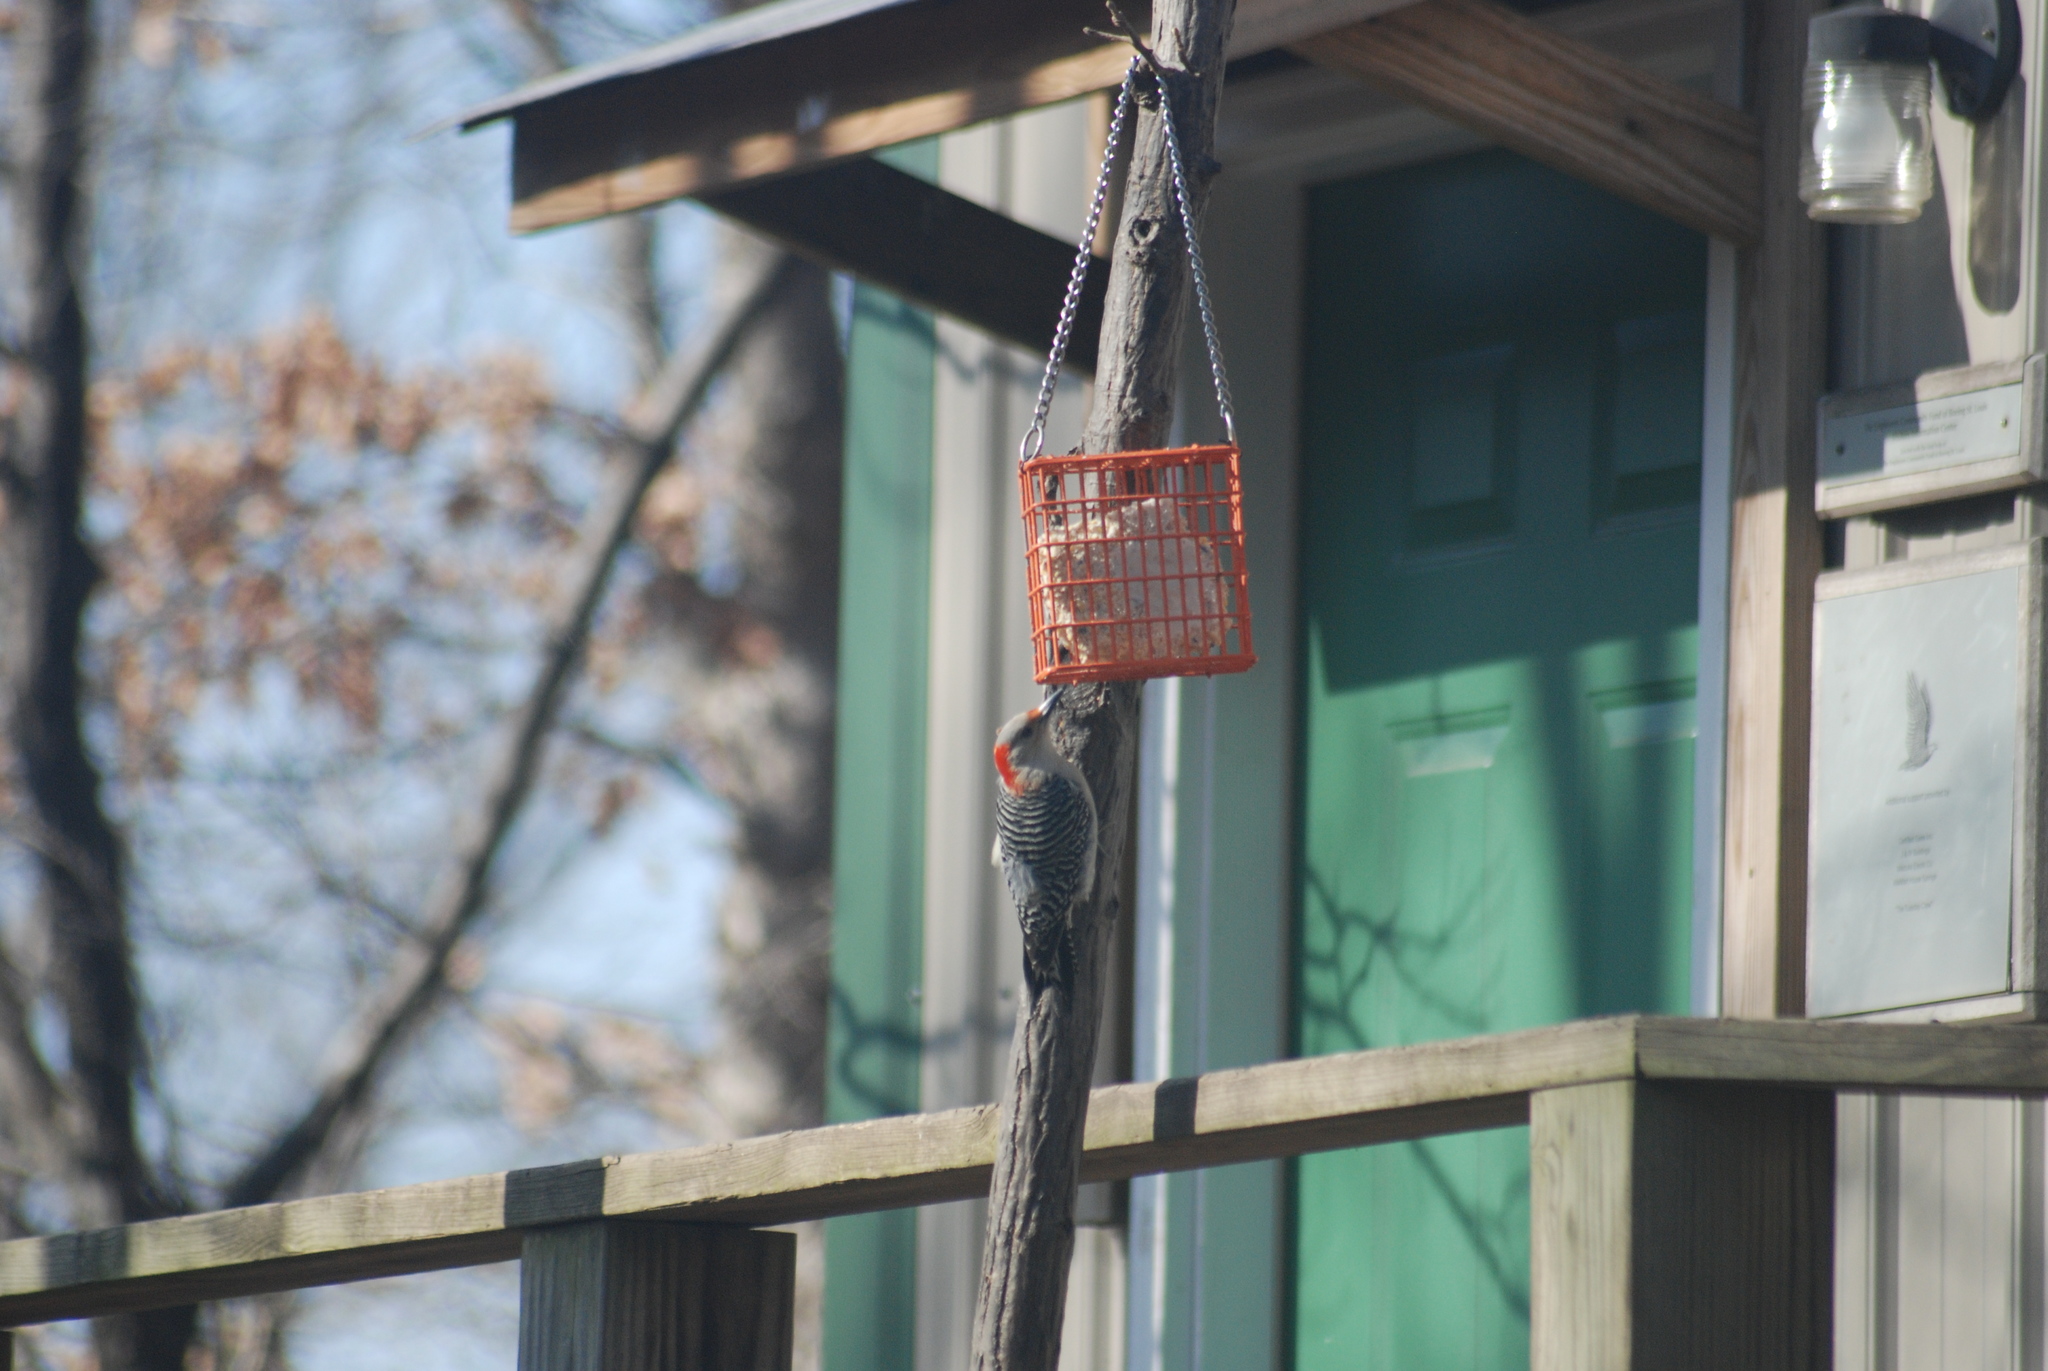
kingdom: Animalia
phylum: Chordata
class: Aves
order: Piciformes
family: Picidae
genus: Melanerpes
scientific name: Melanerpes carolinus
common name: Red-bellied woodpecker
